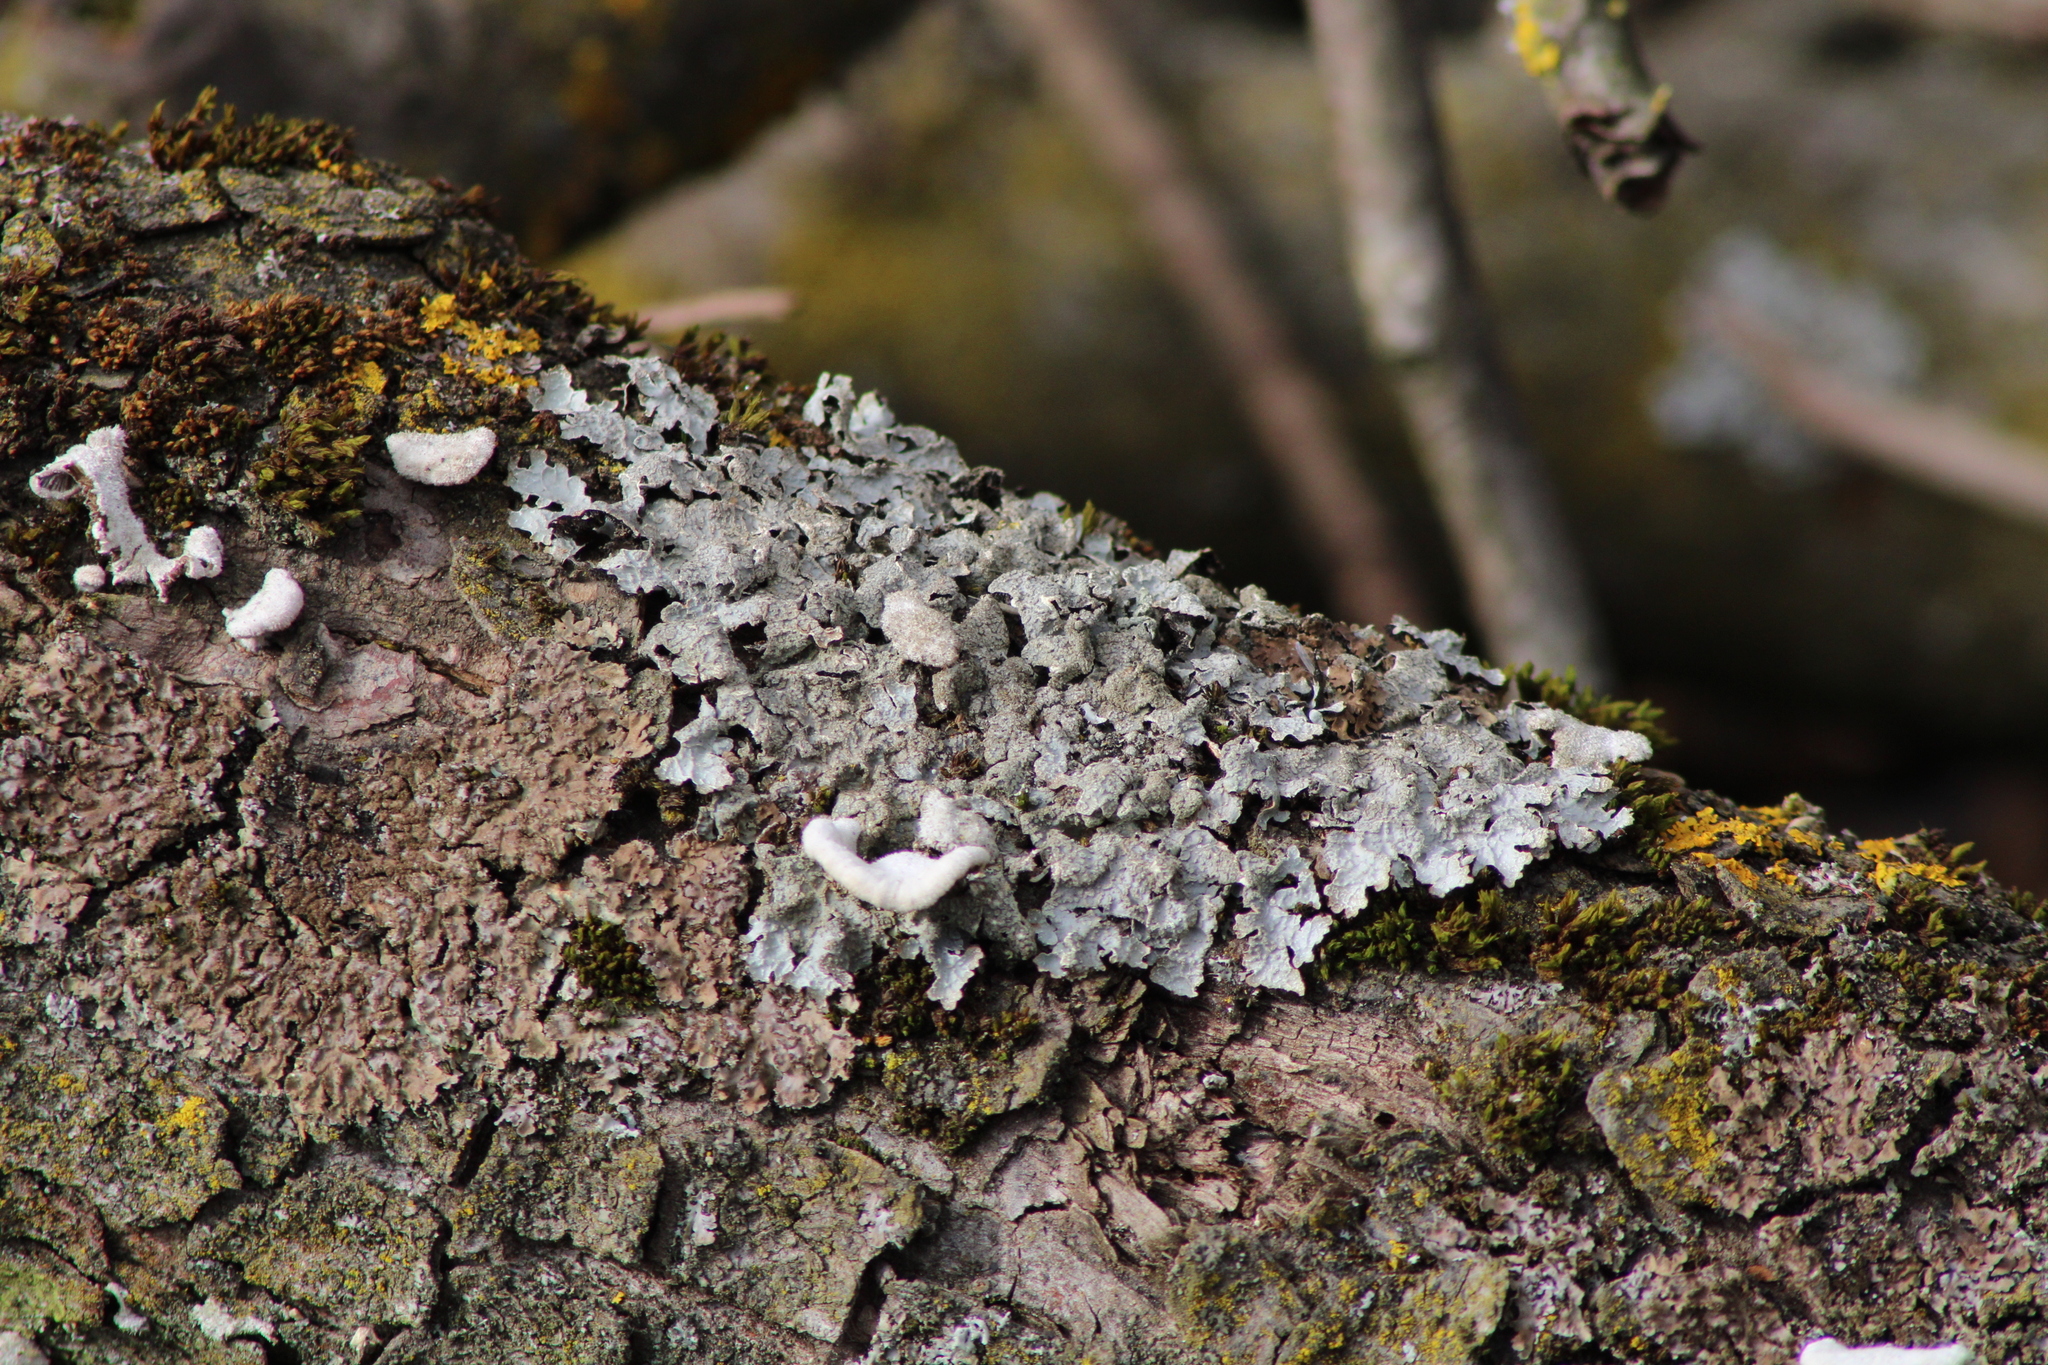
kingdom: Fungi
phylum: Ascomycota
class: Lecanoromycetes
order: Lecanorales
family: Parmeliaceae
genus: Parmelia
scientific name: Parmelia sulcata
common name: Netted shield lichen
